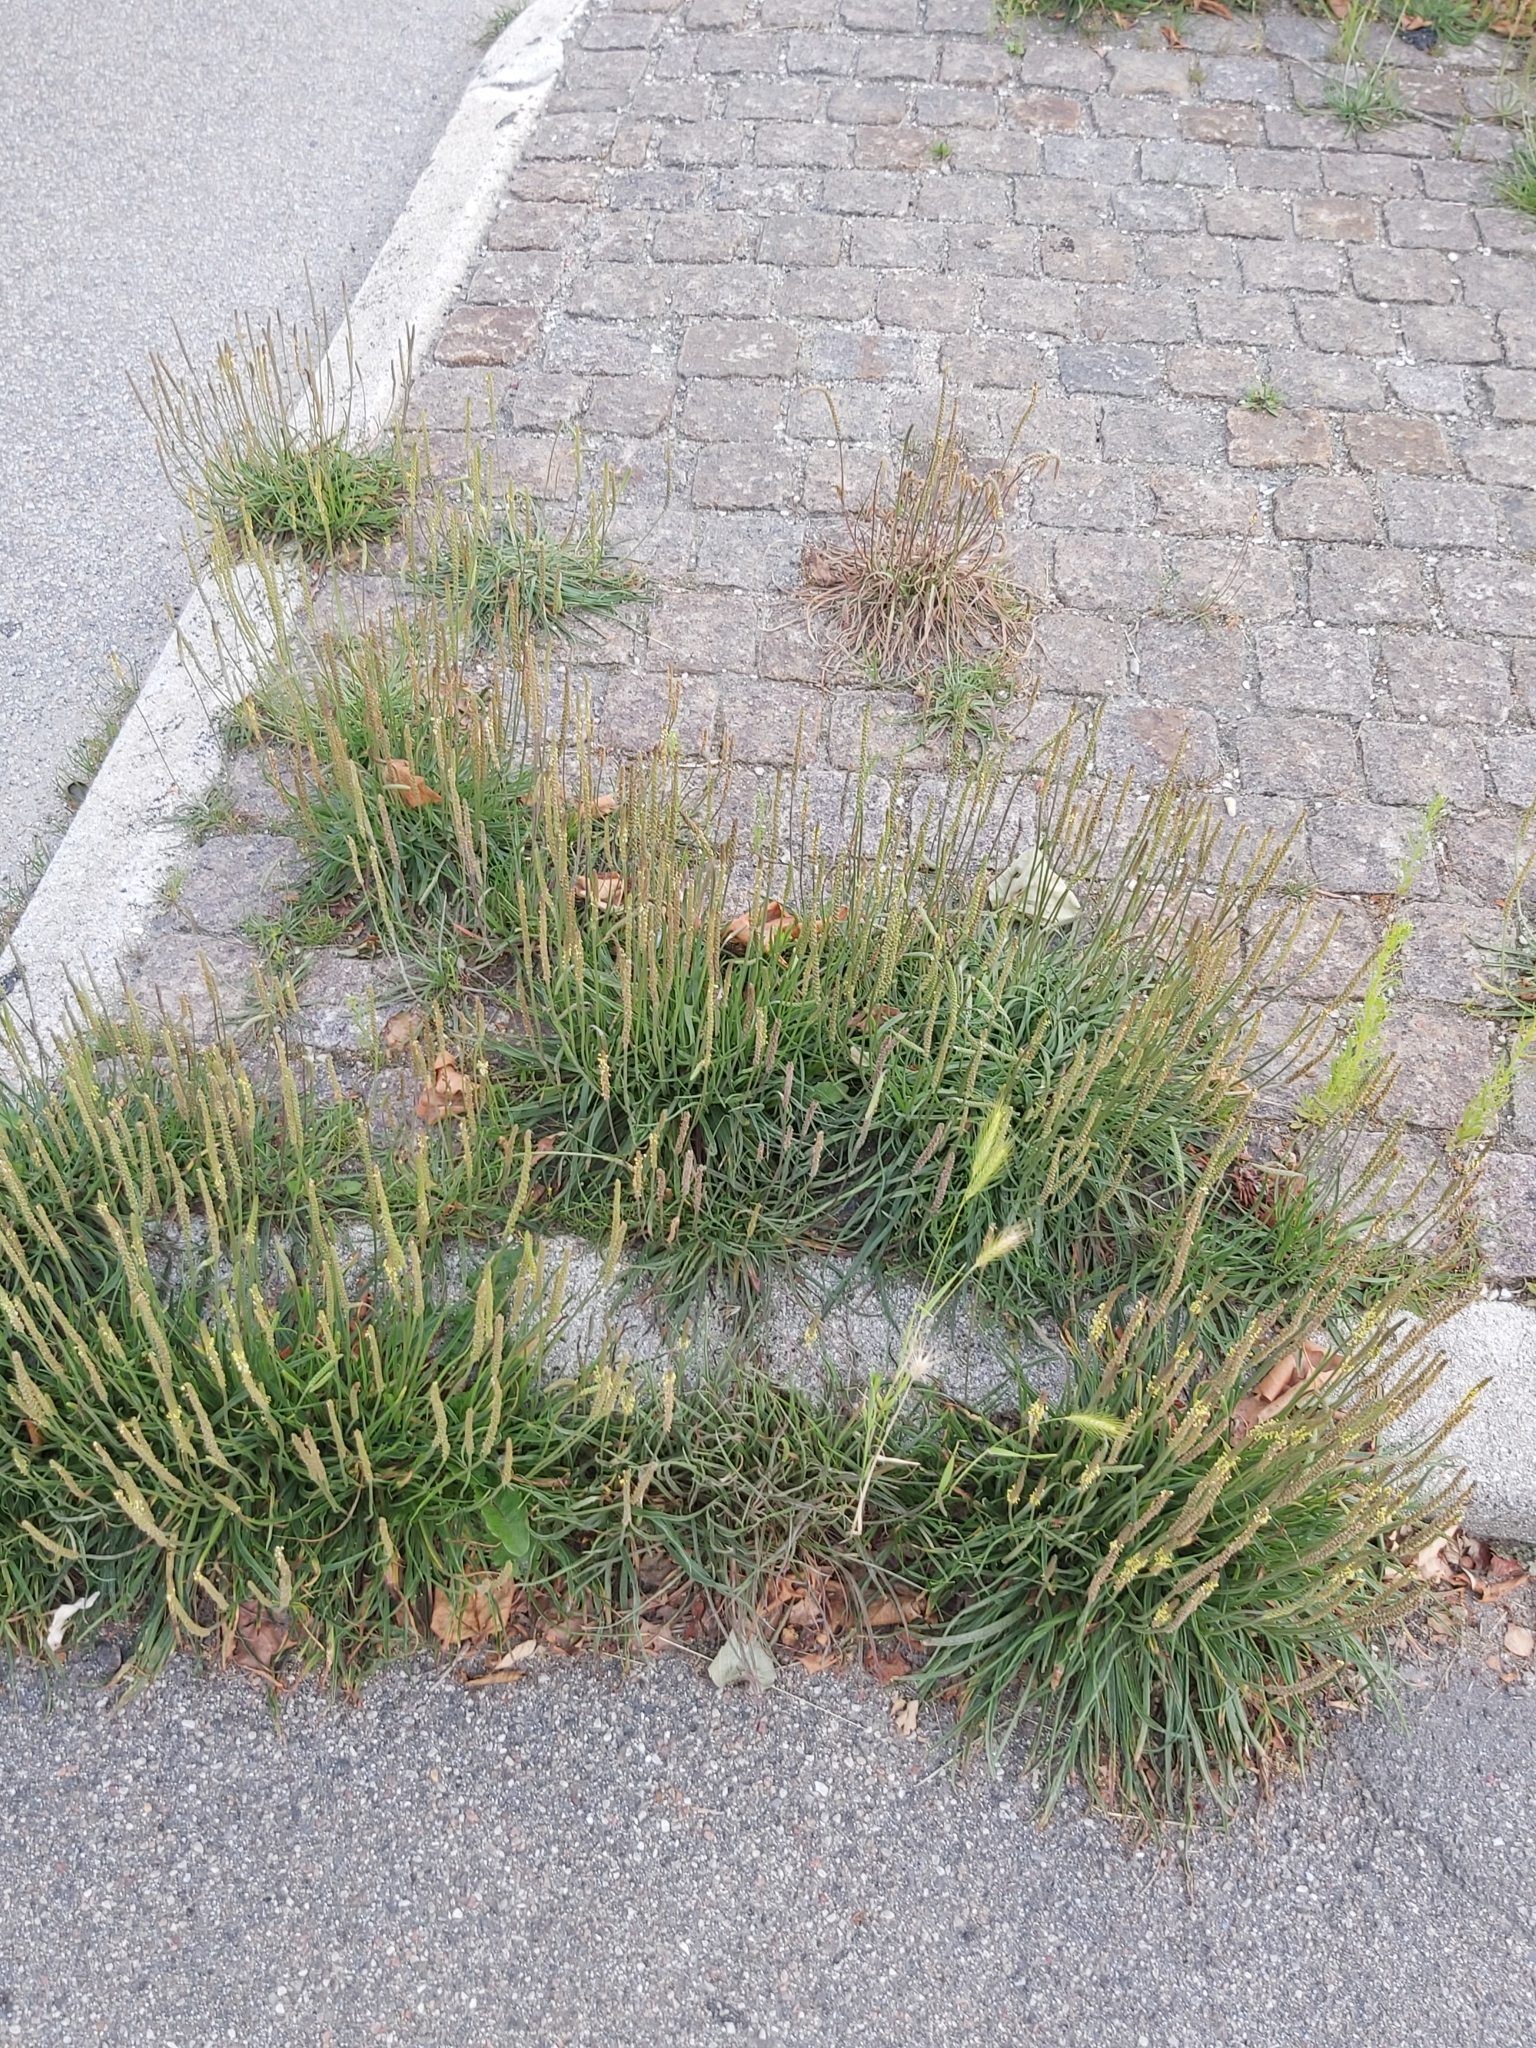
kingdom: Plantae
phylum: Tracheophyta
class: Magnoliopsida
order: Lamiales
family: Plantaginaceae
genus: Plantago
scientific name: Plantago maritima
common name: Sea plantain
